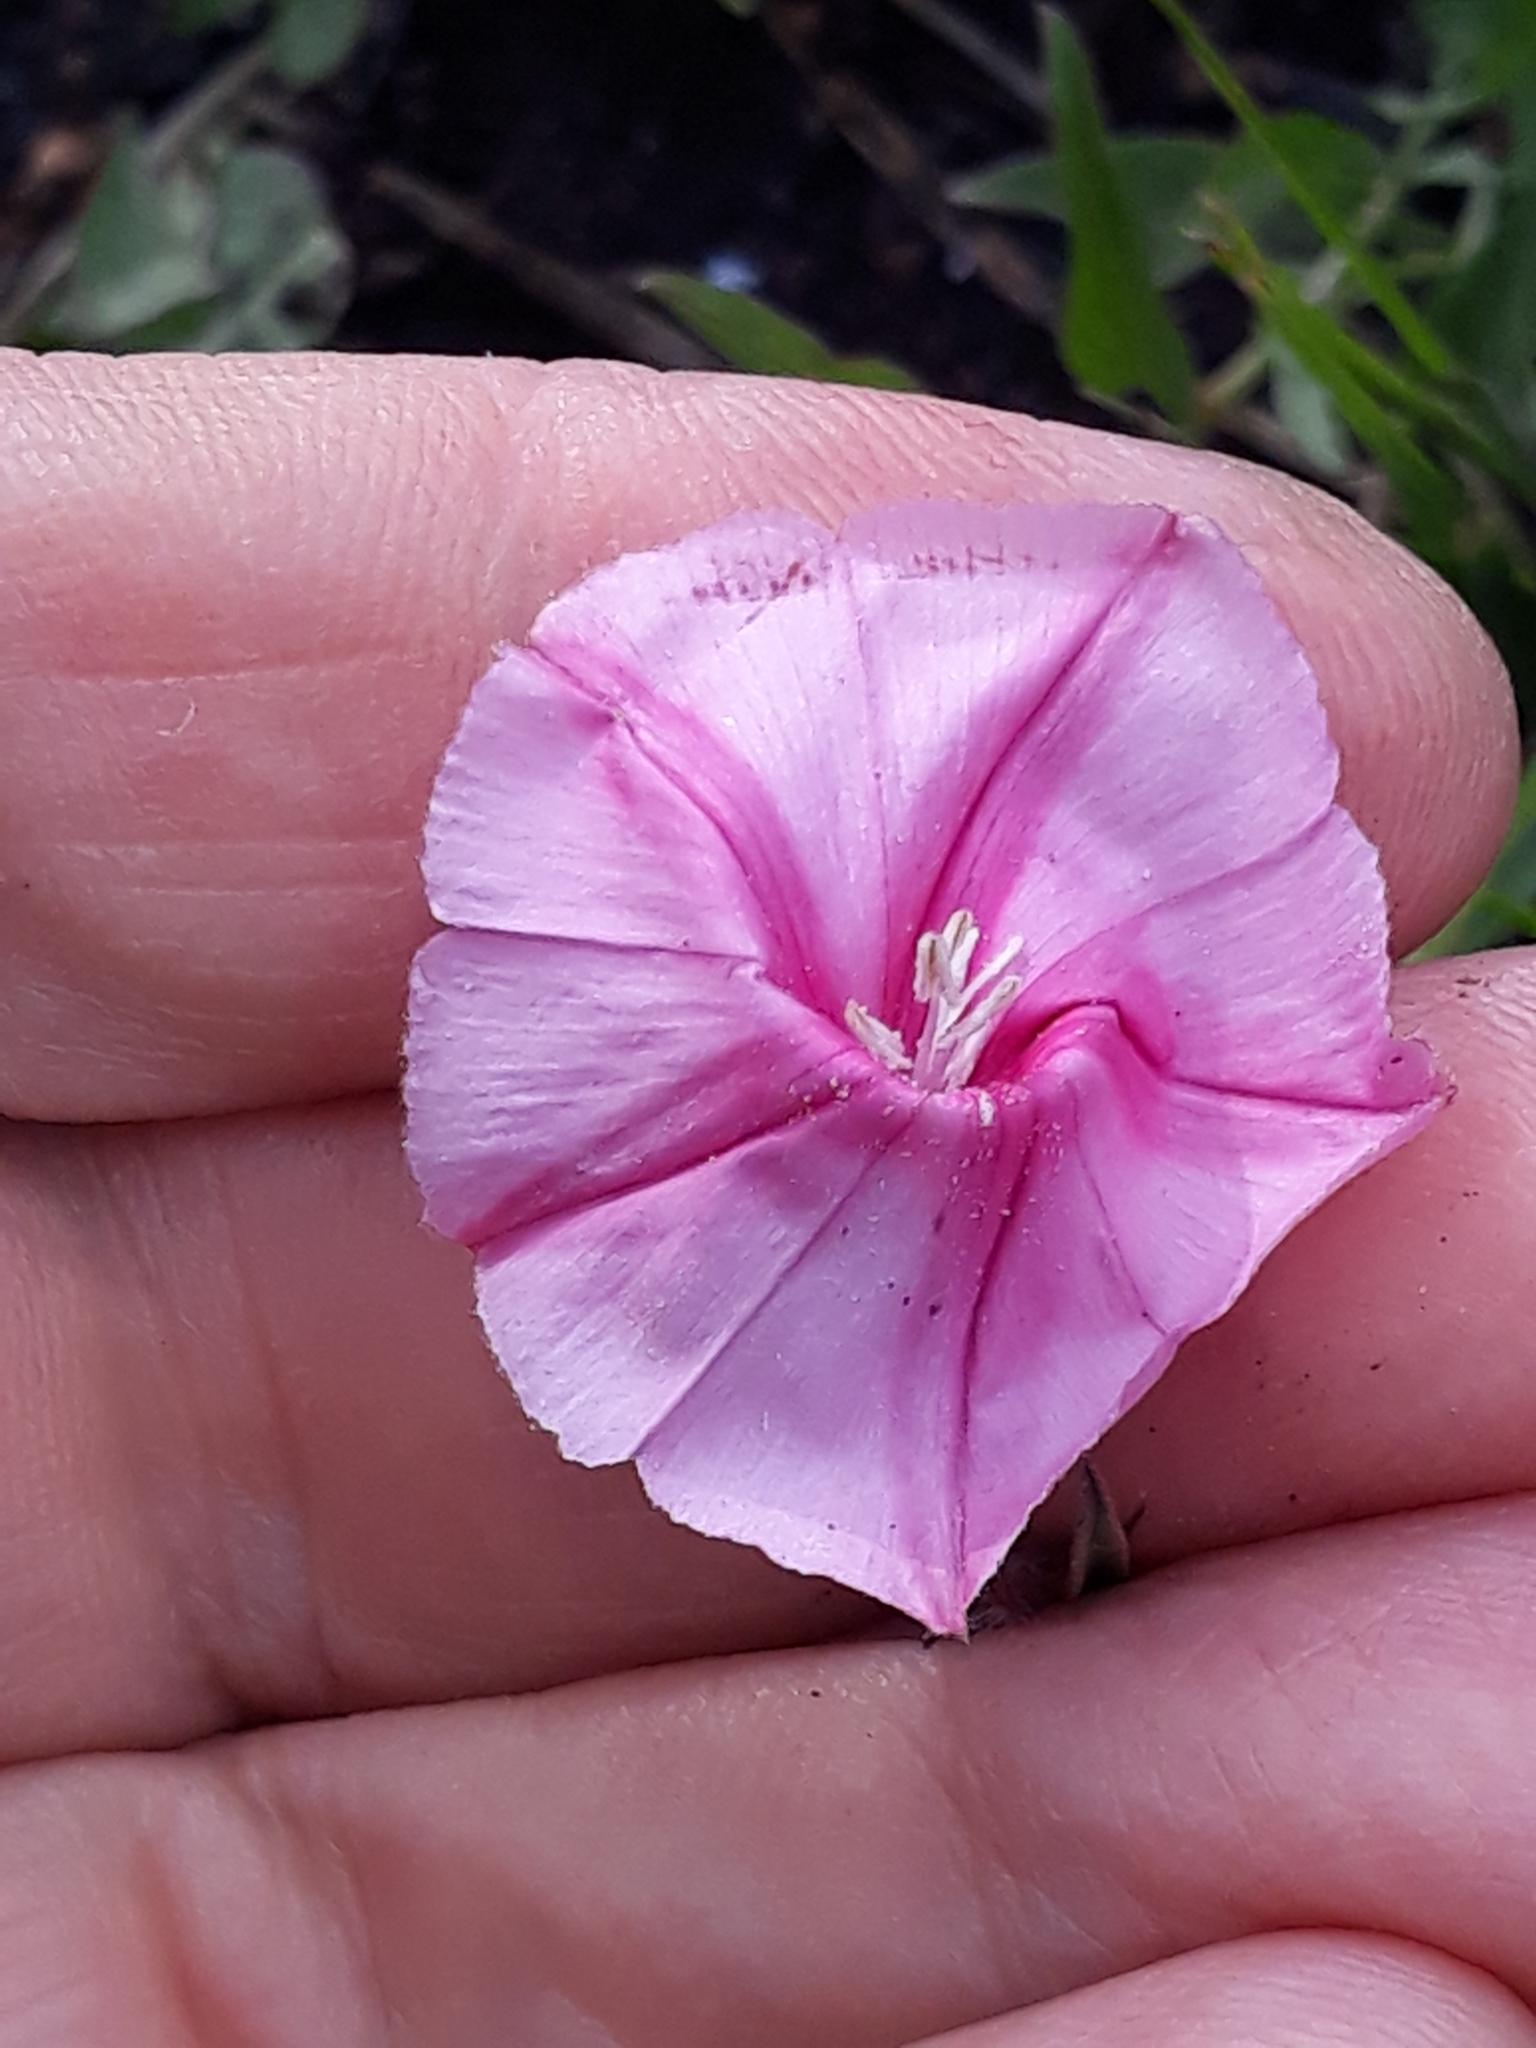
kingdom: Plantae
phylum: Tracheophyta
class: Magnoliopsida
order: Solanales
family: Convolvulaceae
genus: Convolvulus
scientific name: Convolvulus cantabrica
